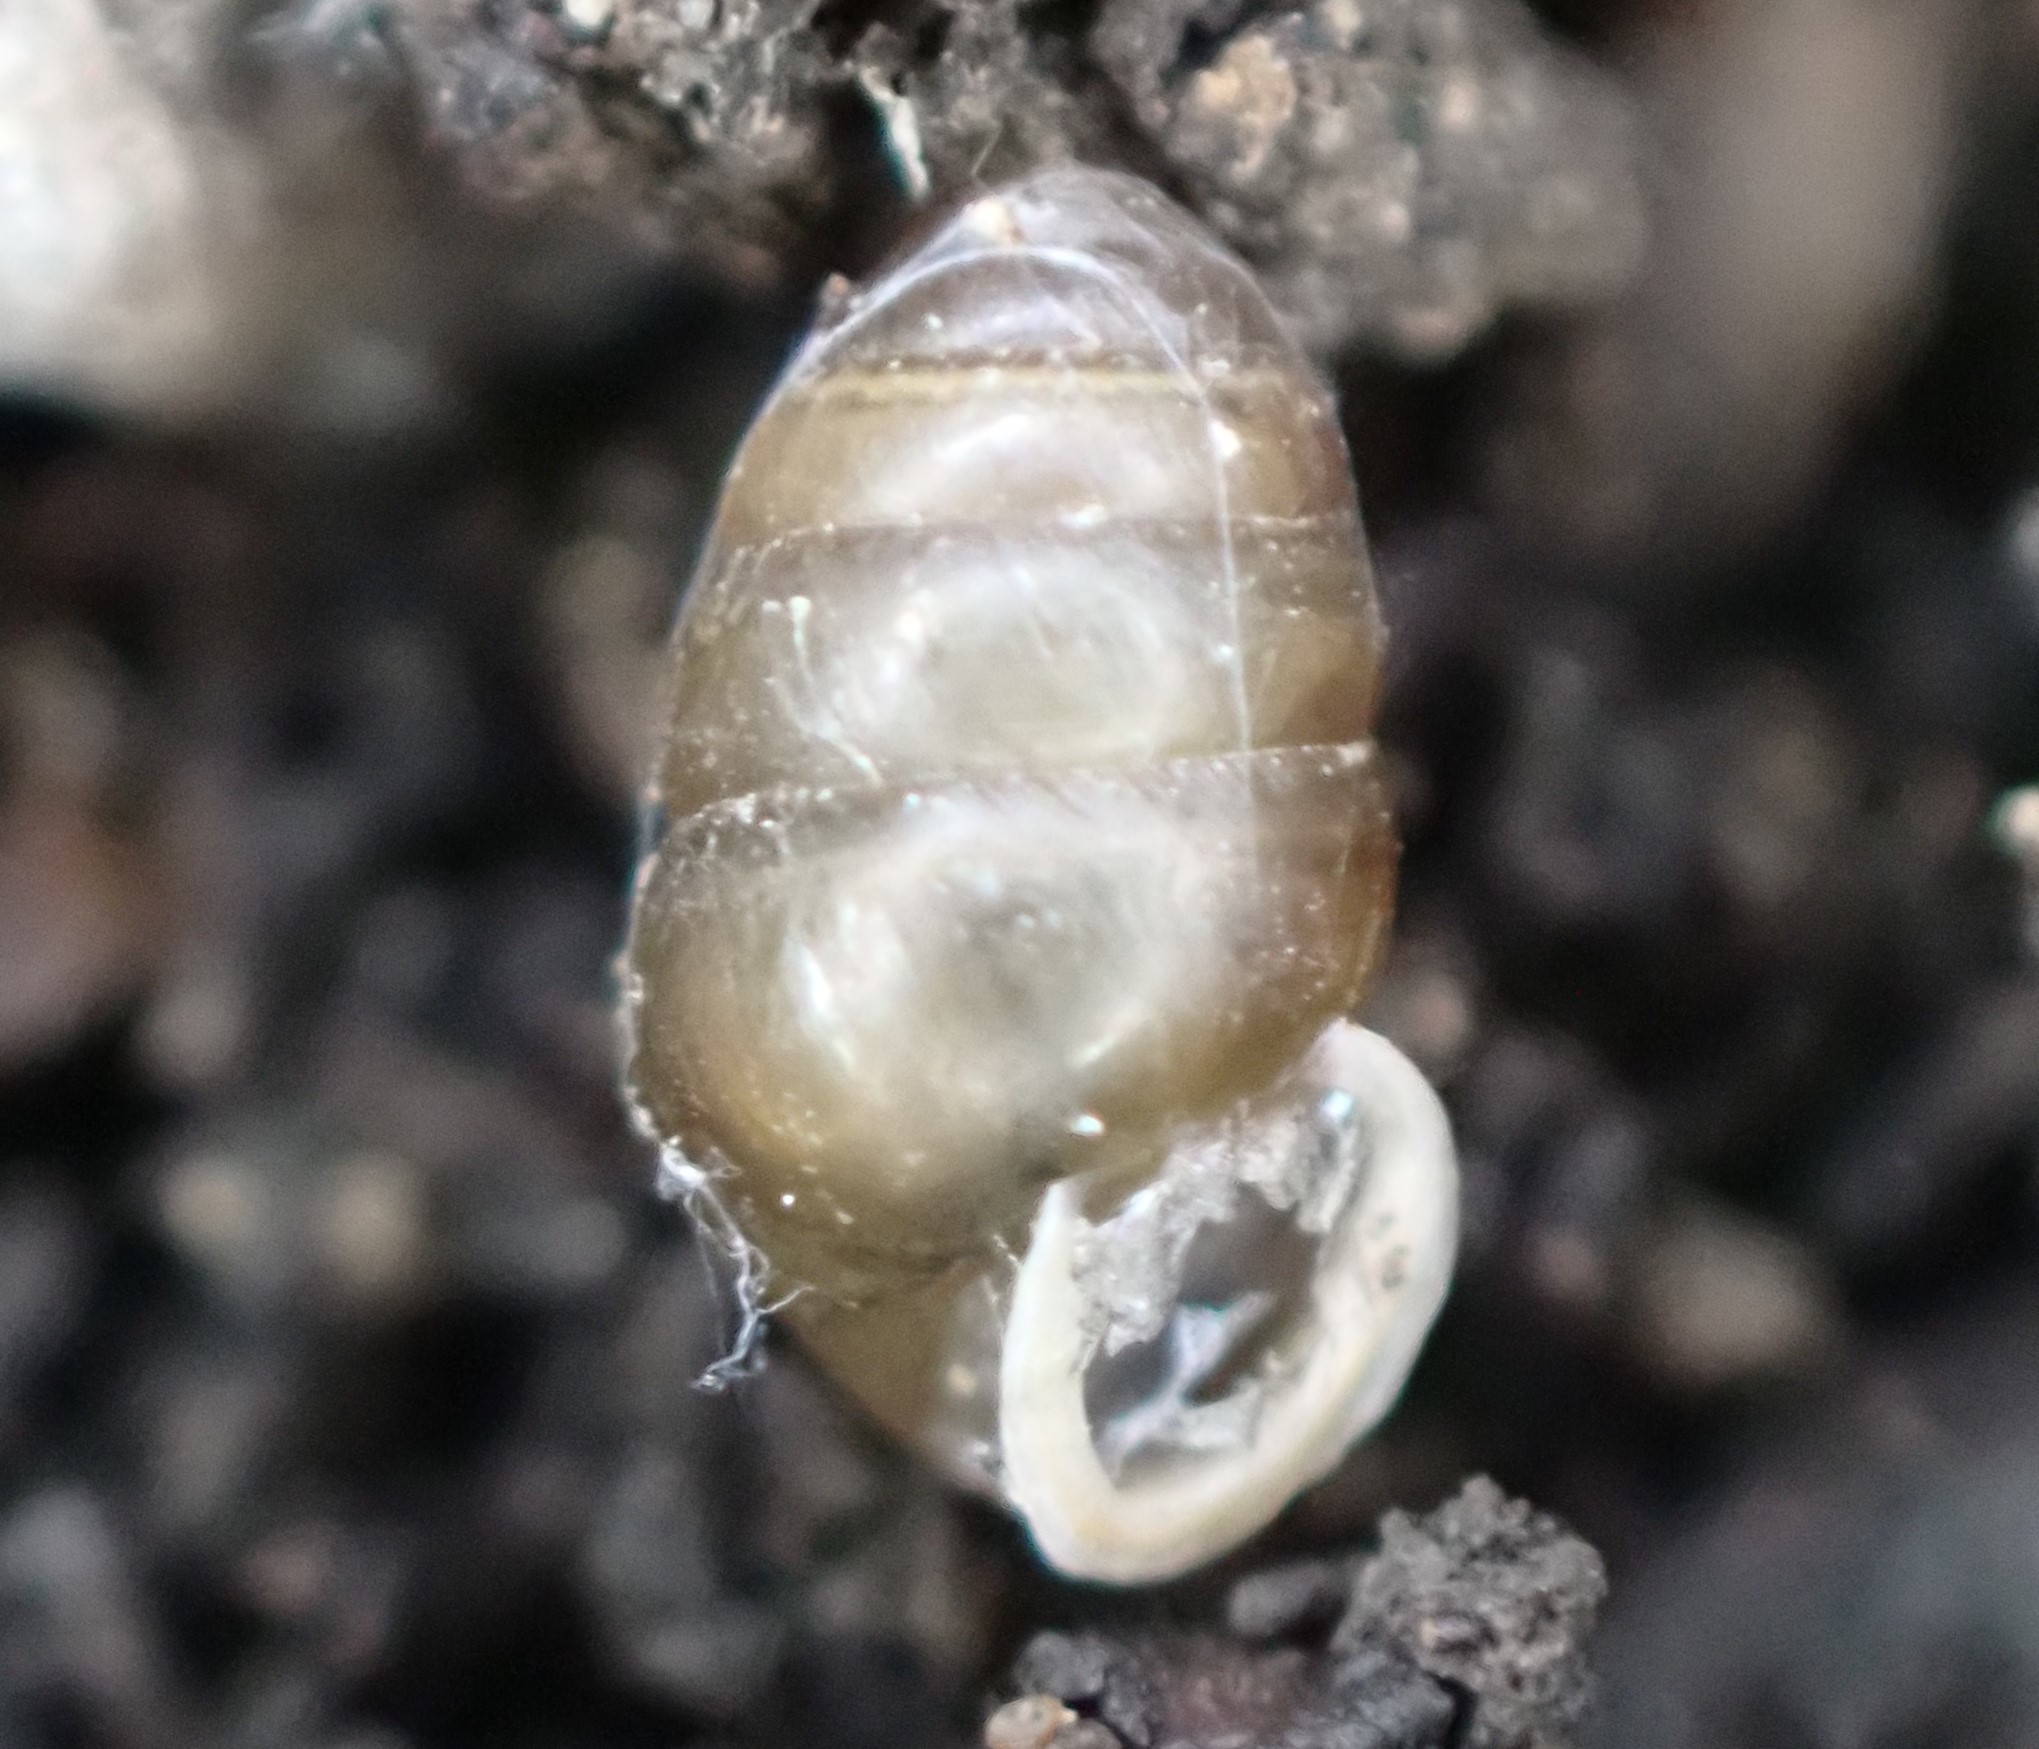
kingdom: Animalia
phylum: Mollusca
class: Gastropoda
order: Stylommatophora
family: Lauriidae
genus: Lauria
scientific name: Lauria cylindracea
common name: Common chrysalis snail
